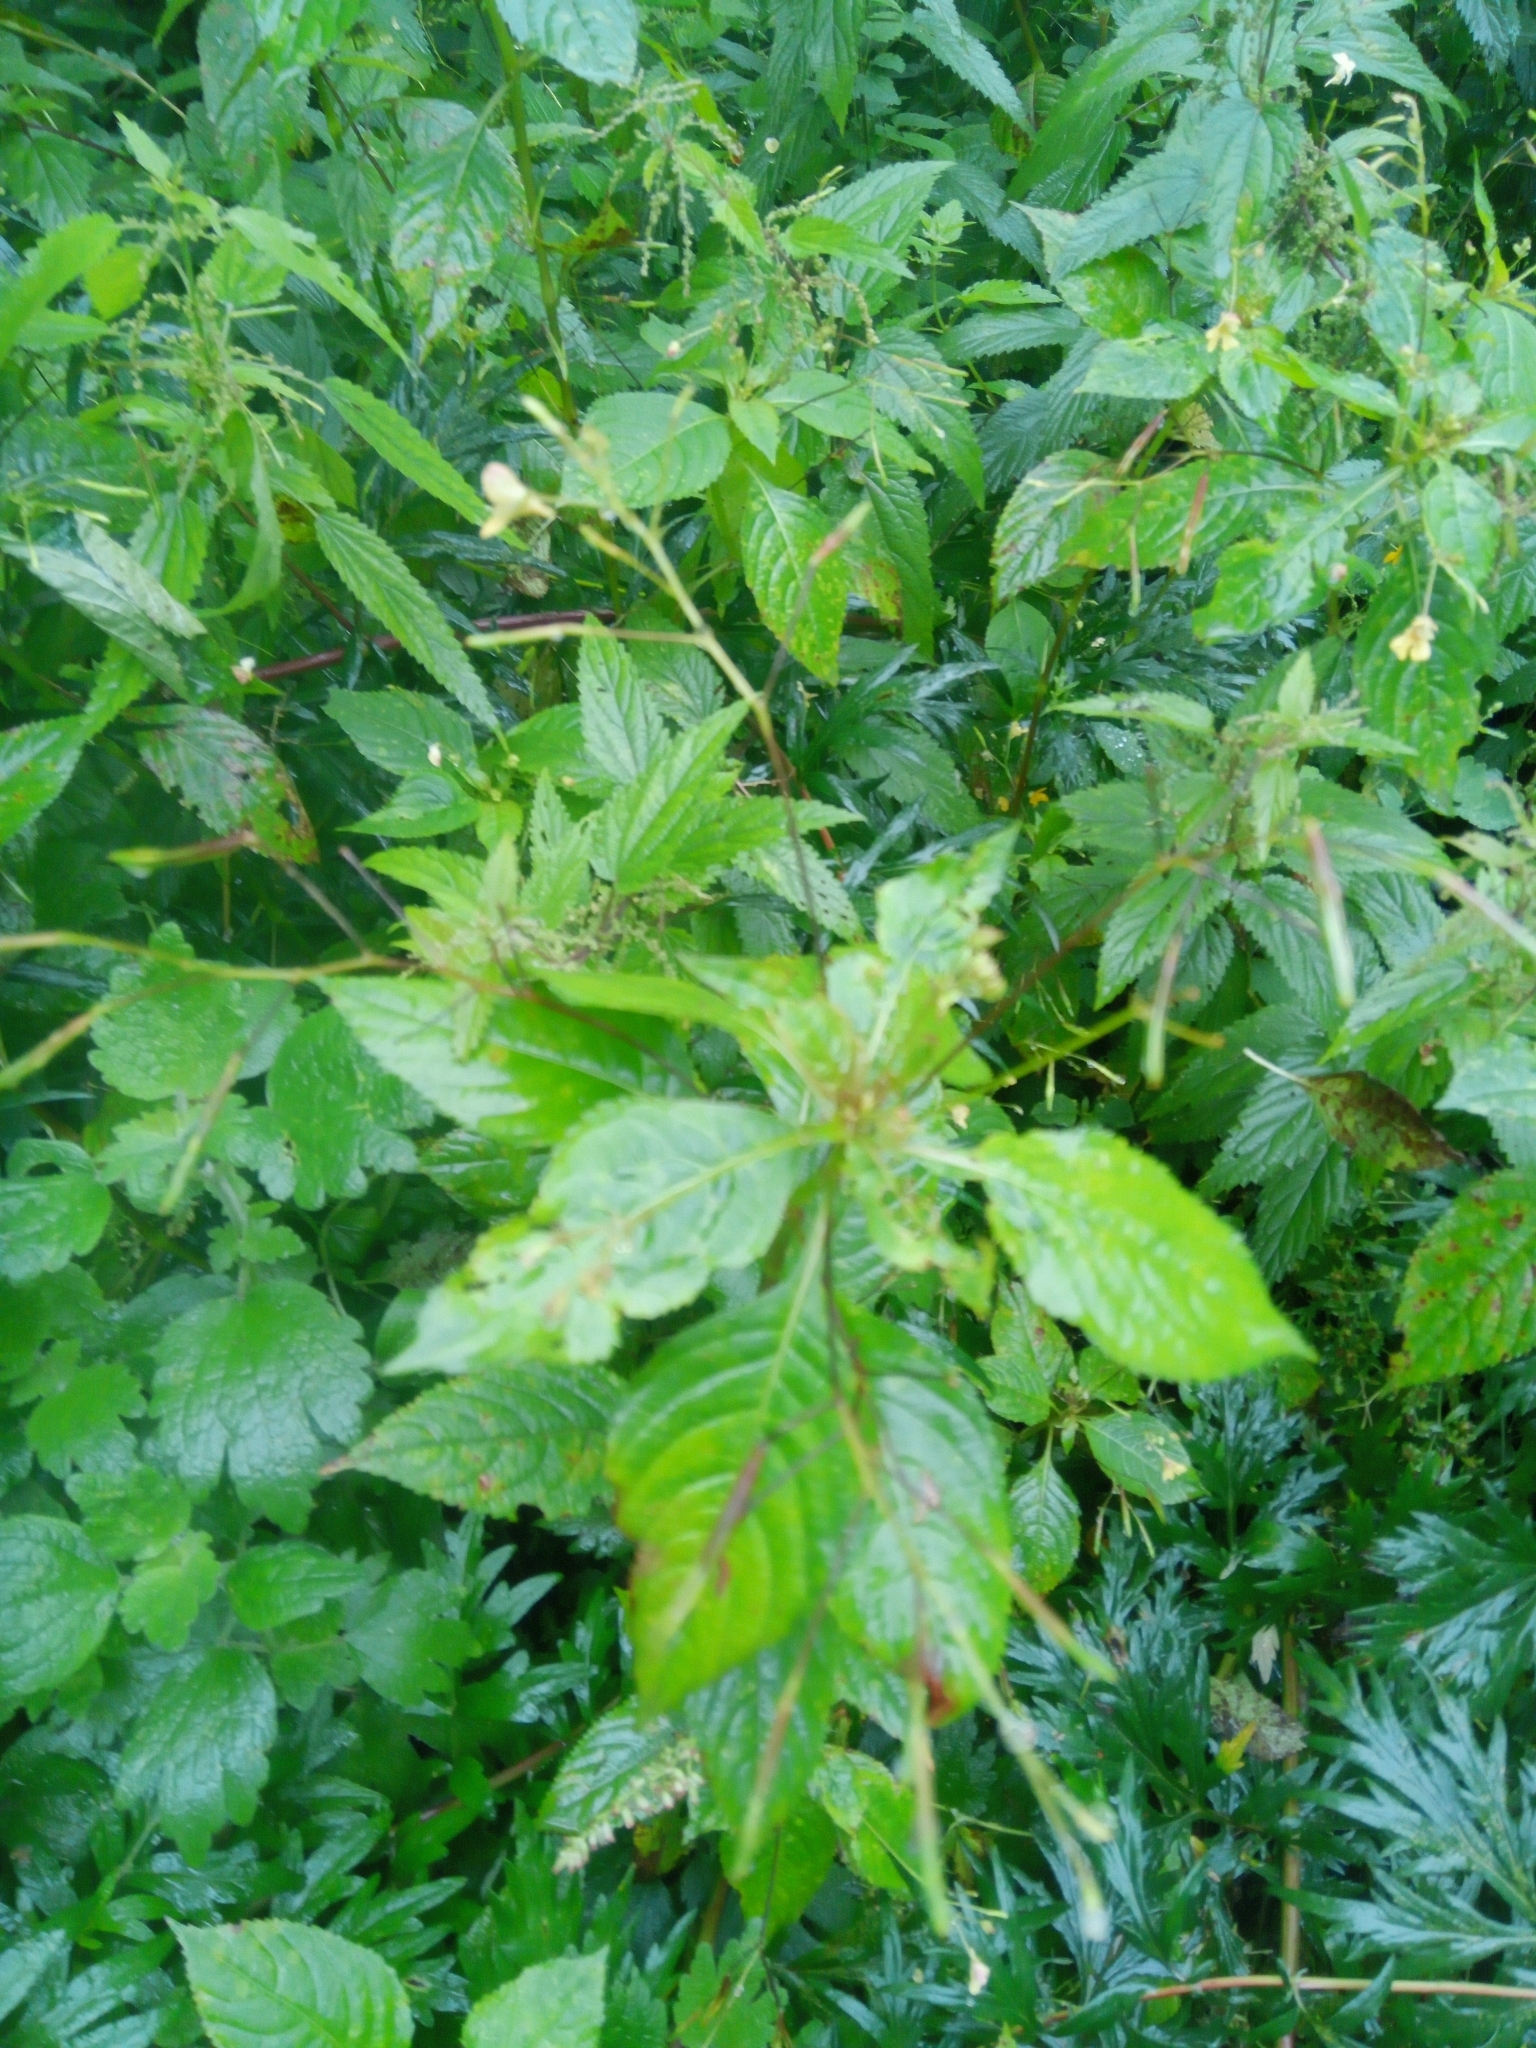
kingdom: Plantae
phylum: Tracheophyta
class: Magnoliopsida
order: Ericales
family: Balsaminaceae
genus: Impatiens
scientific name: Impatiens parviflora
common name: Small balsam
